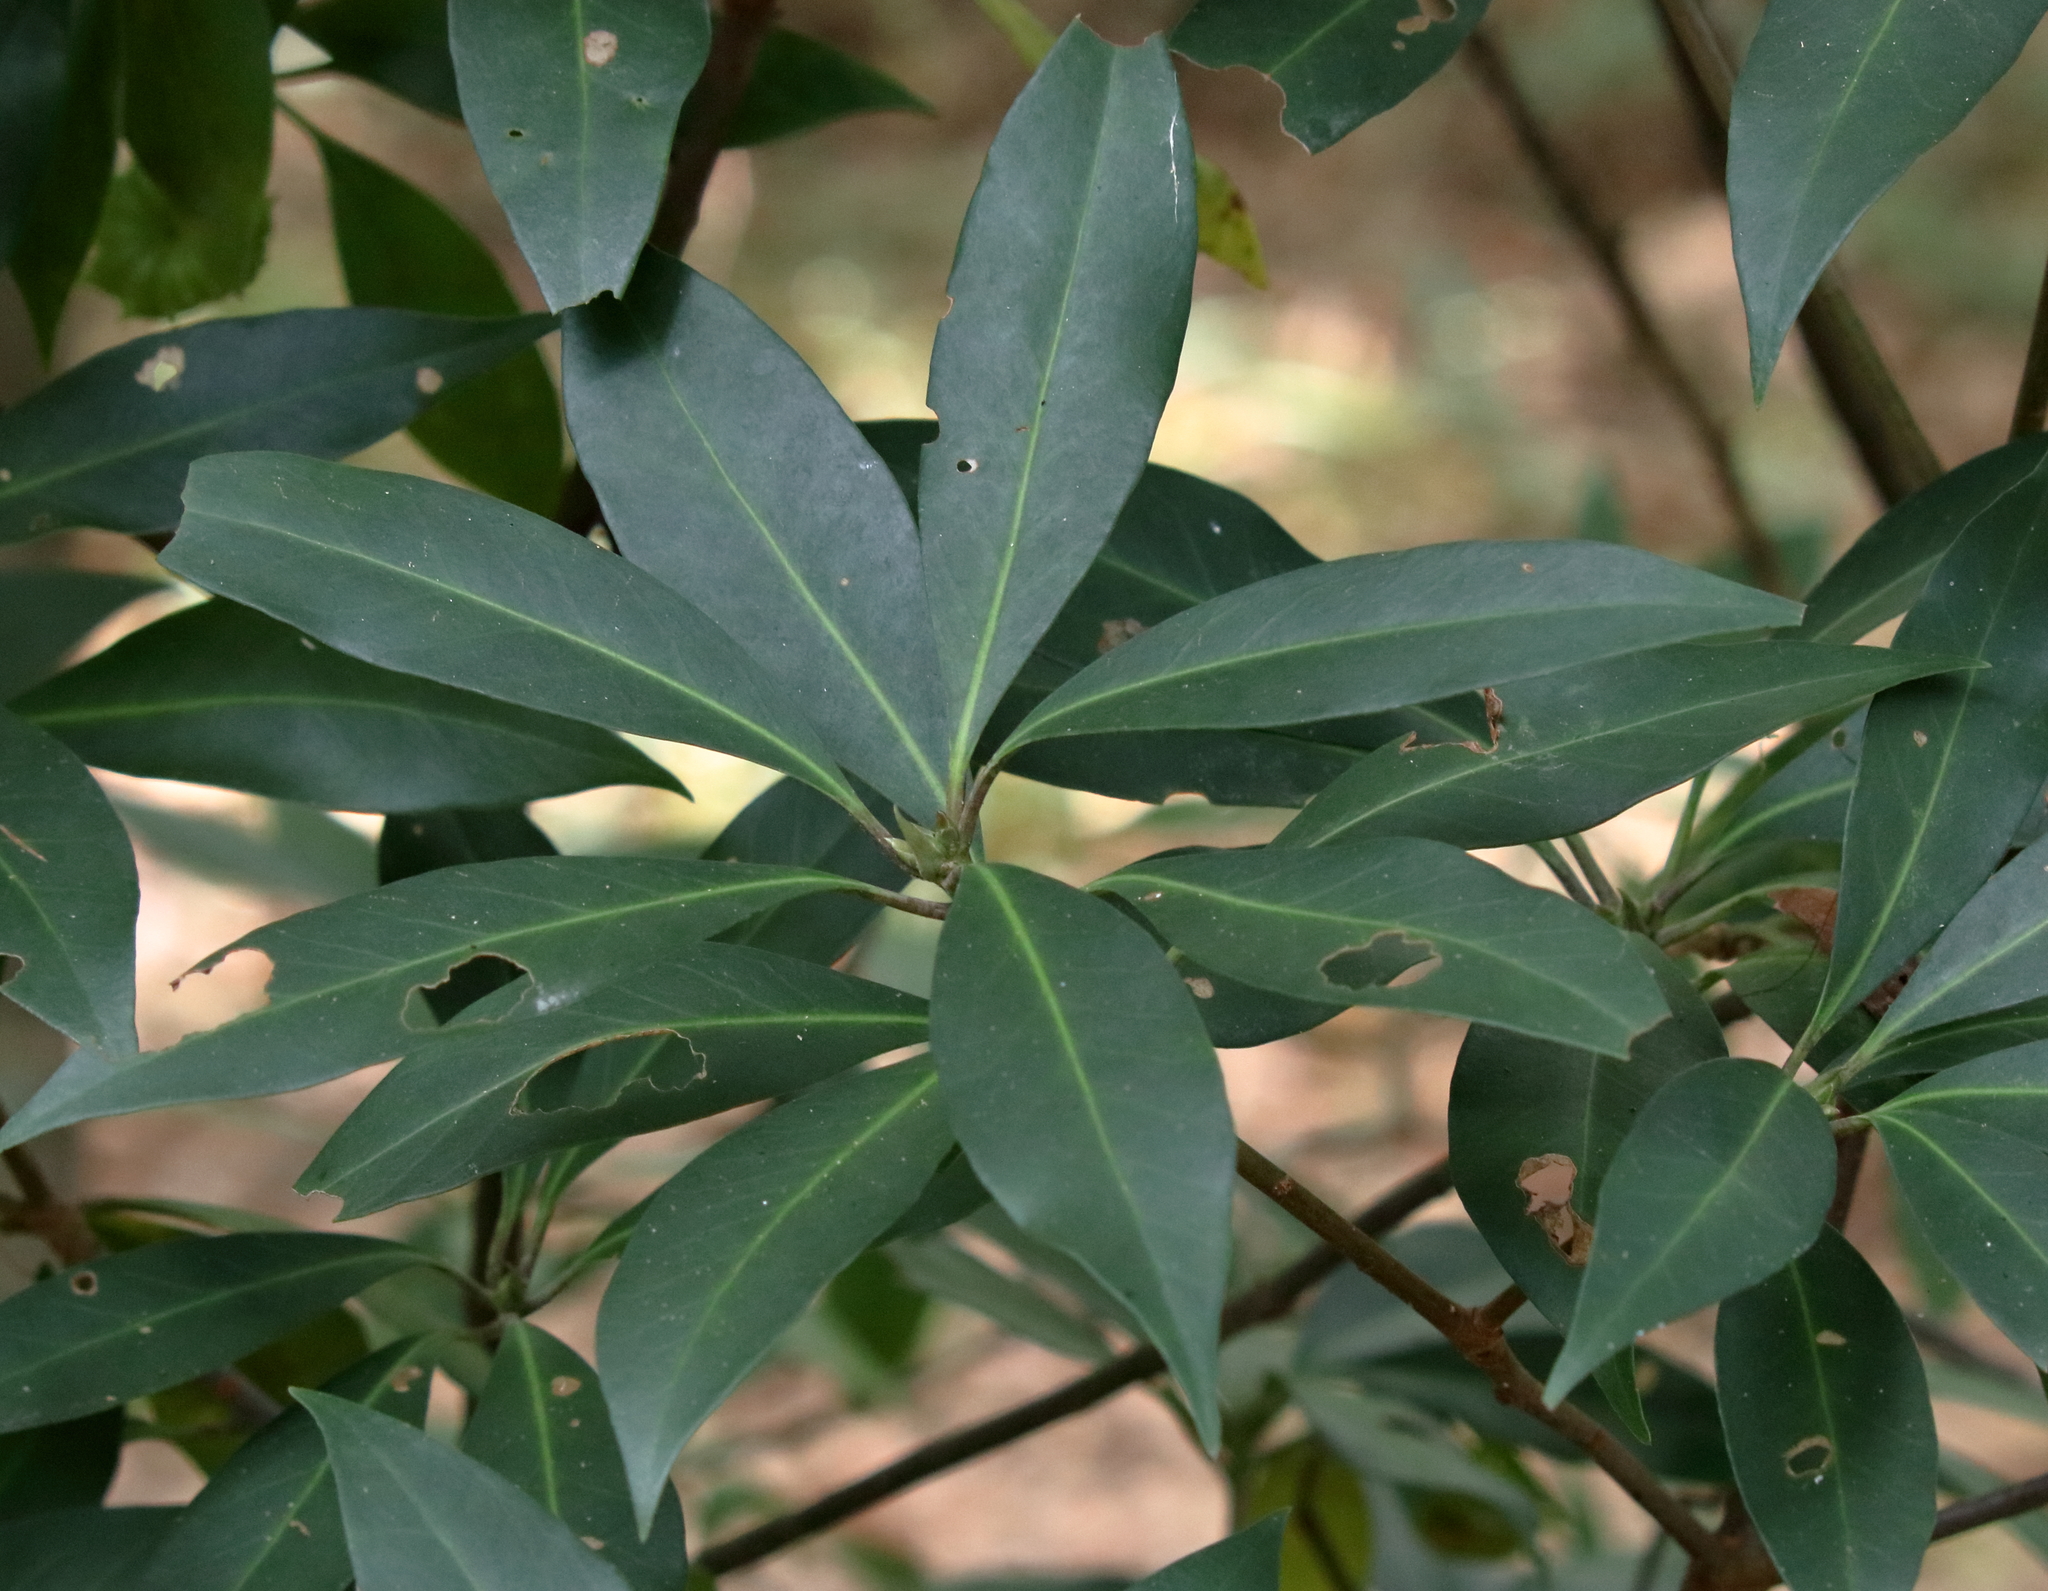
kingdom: Plantae
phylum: Tracheophyta
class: Magnoliopsida
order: Austrobaileyales
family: Schisandraceae
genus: Illicium
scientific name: Illicium floridanum
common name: Florida anisetree
